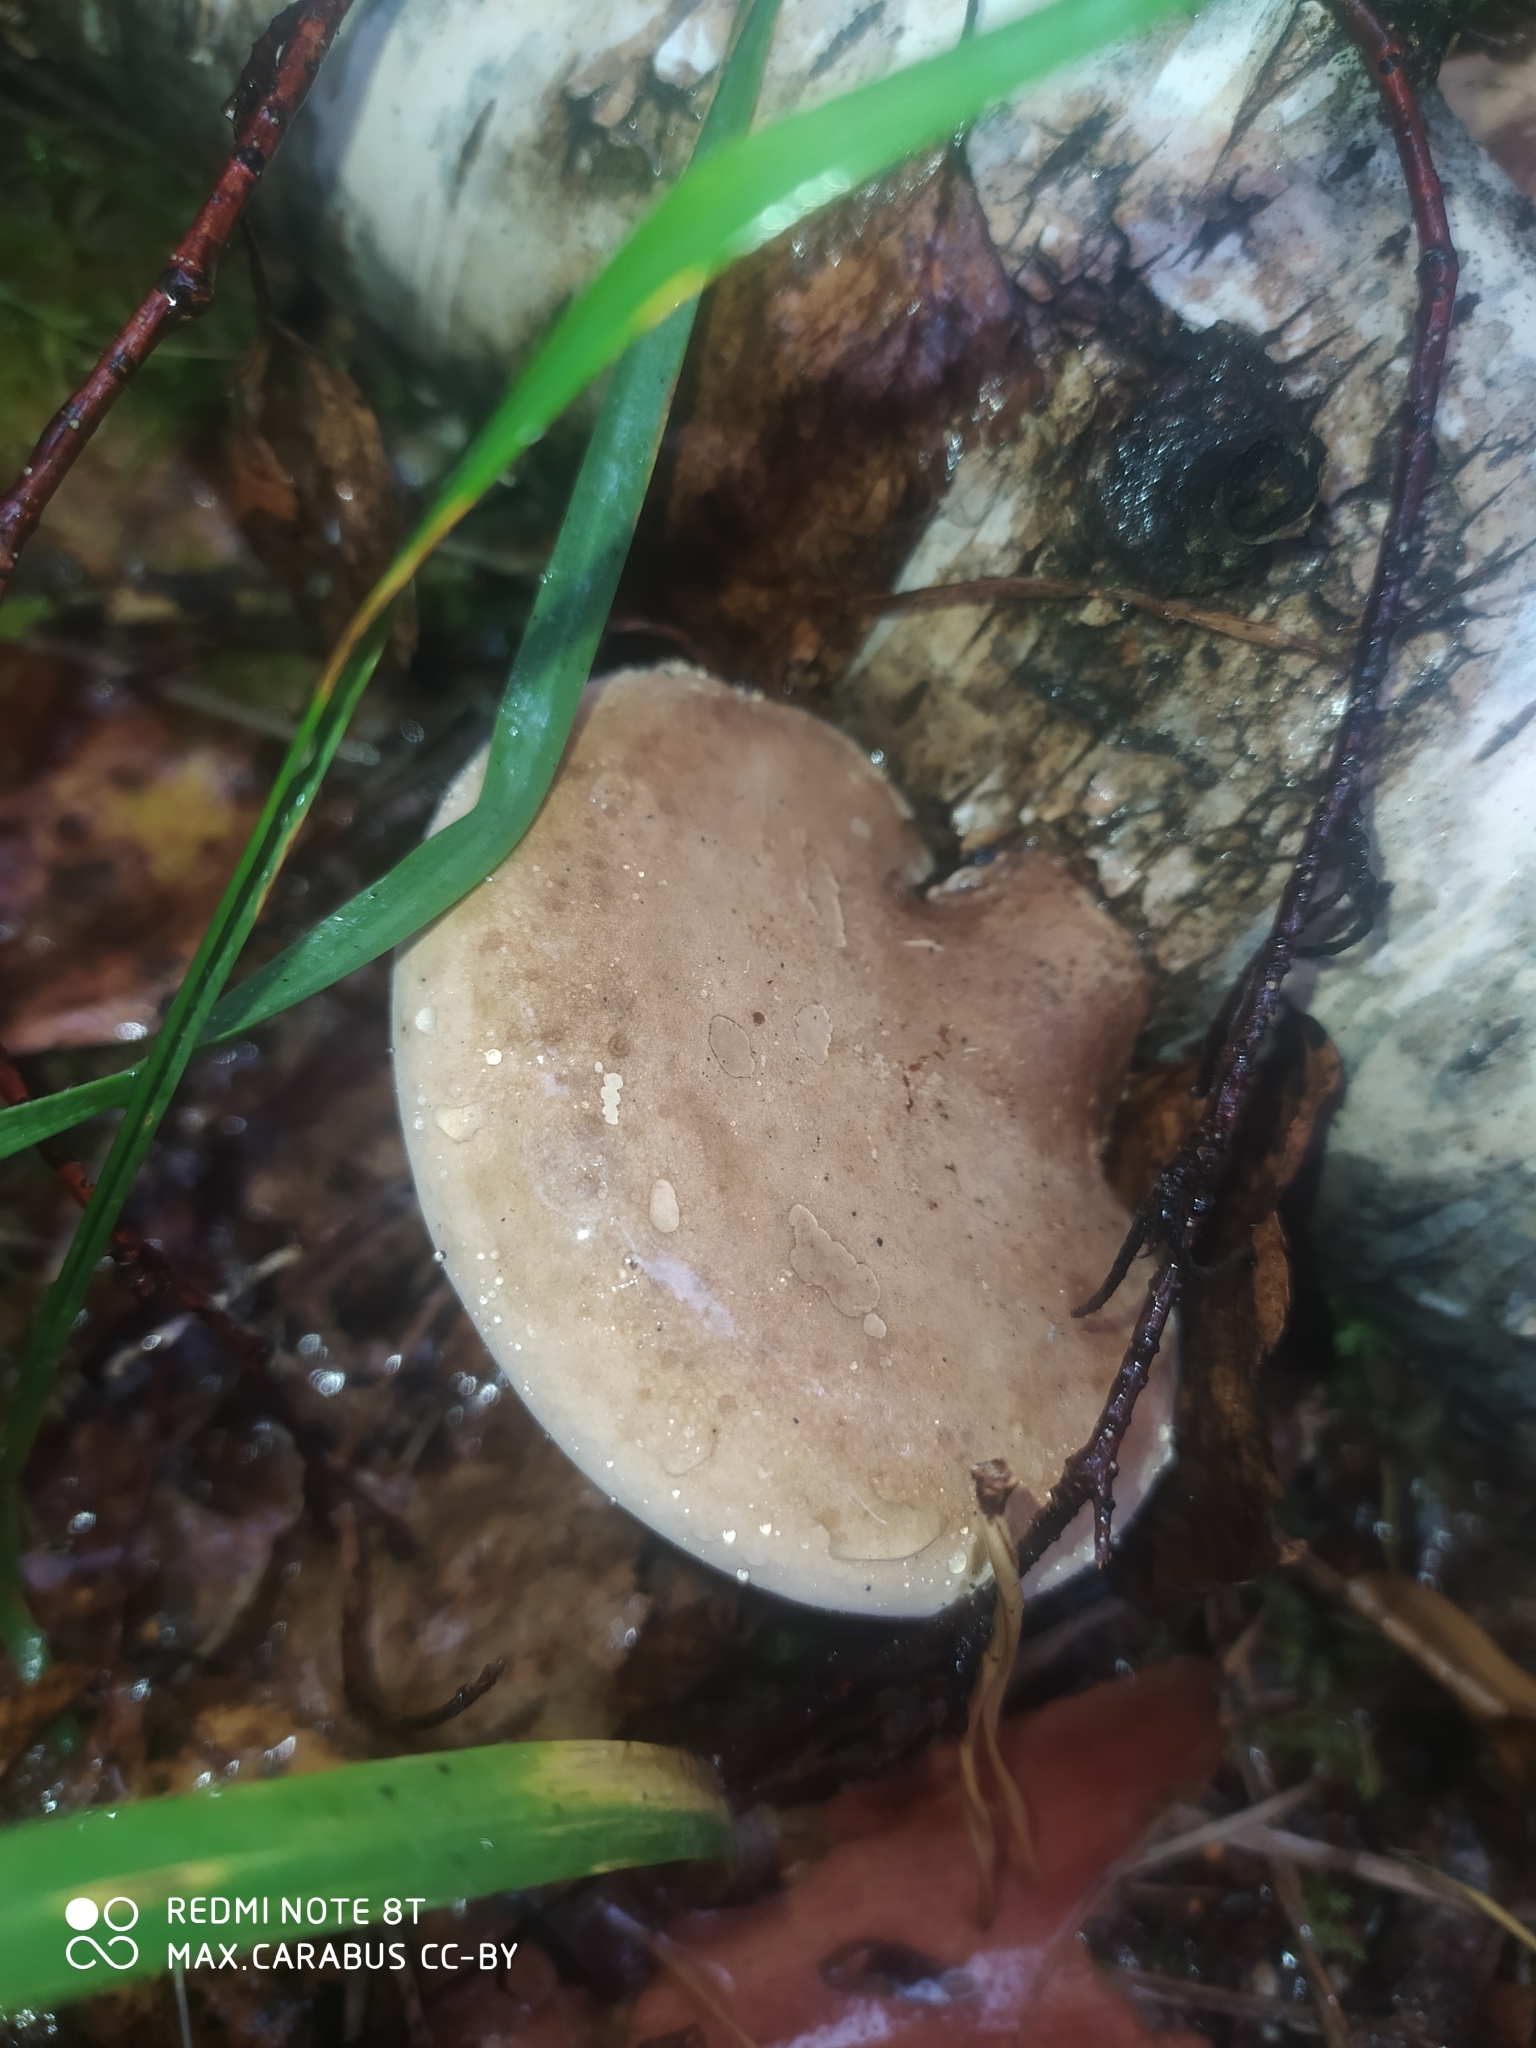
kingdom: Fungi
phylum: Basidiomycota
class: Agaricomycetes
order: Polyporales
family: Fomitopsidaceae
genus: Fomitopsis
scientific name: Fomitopsis betulina
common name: Birch polypore
